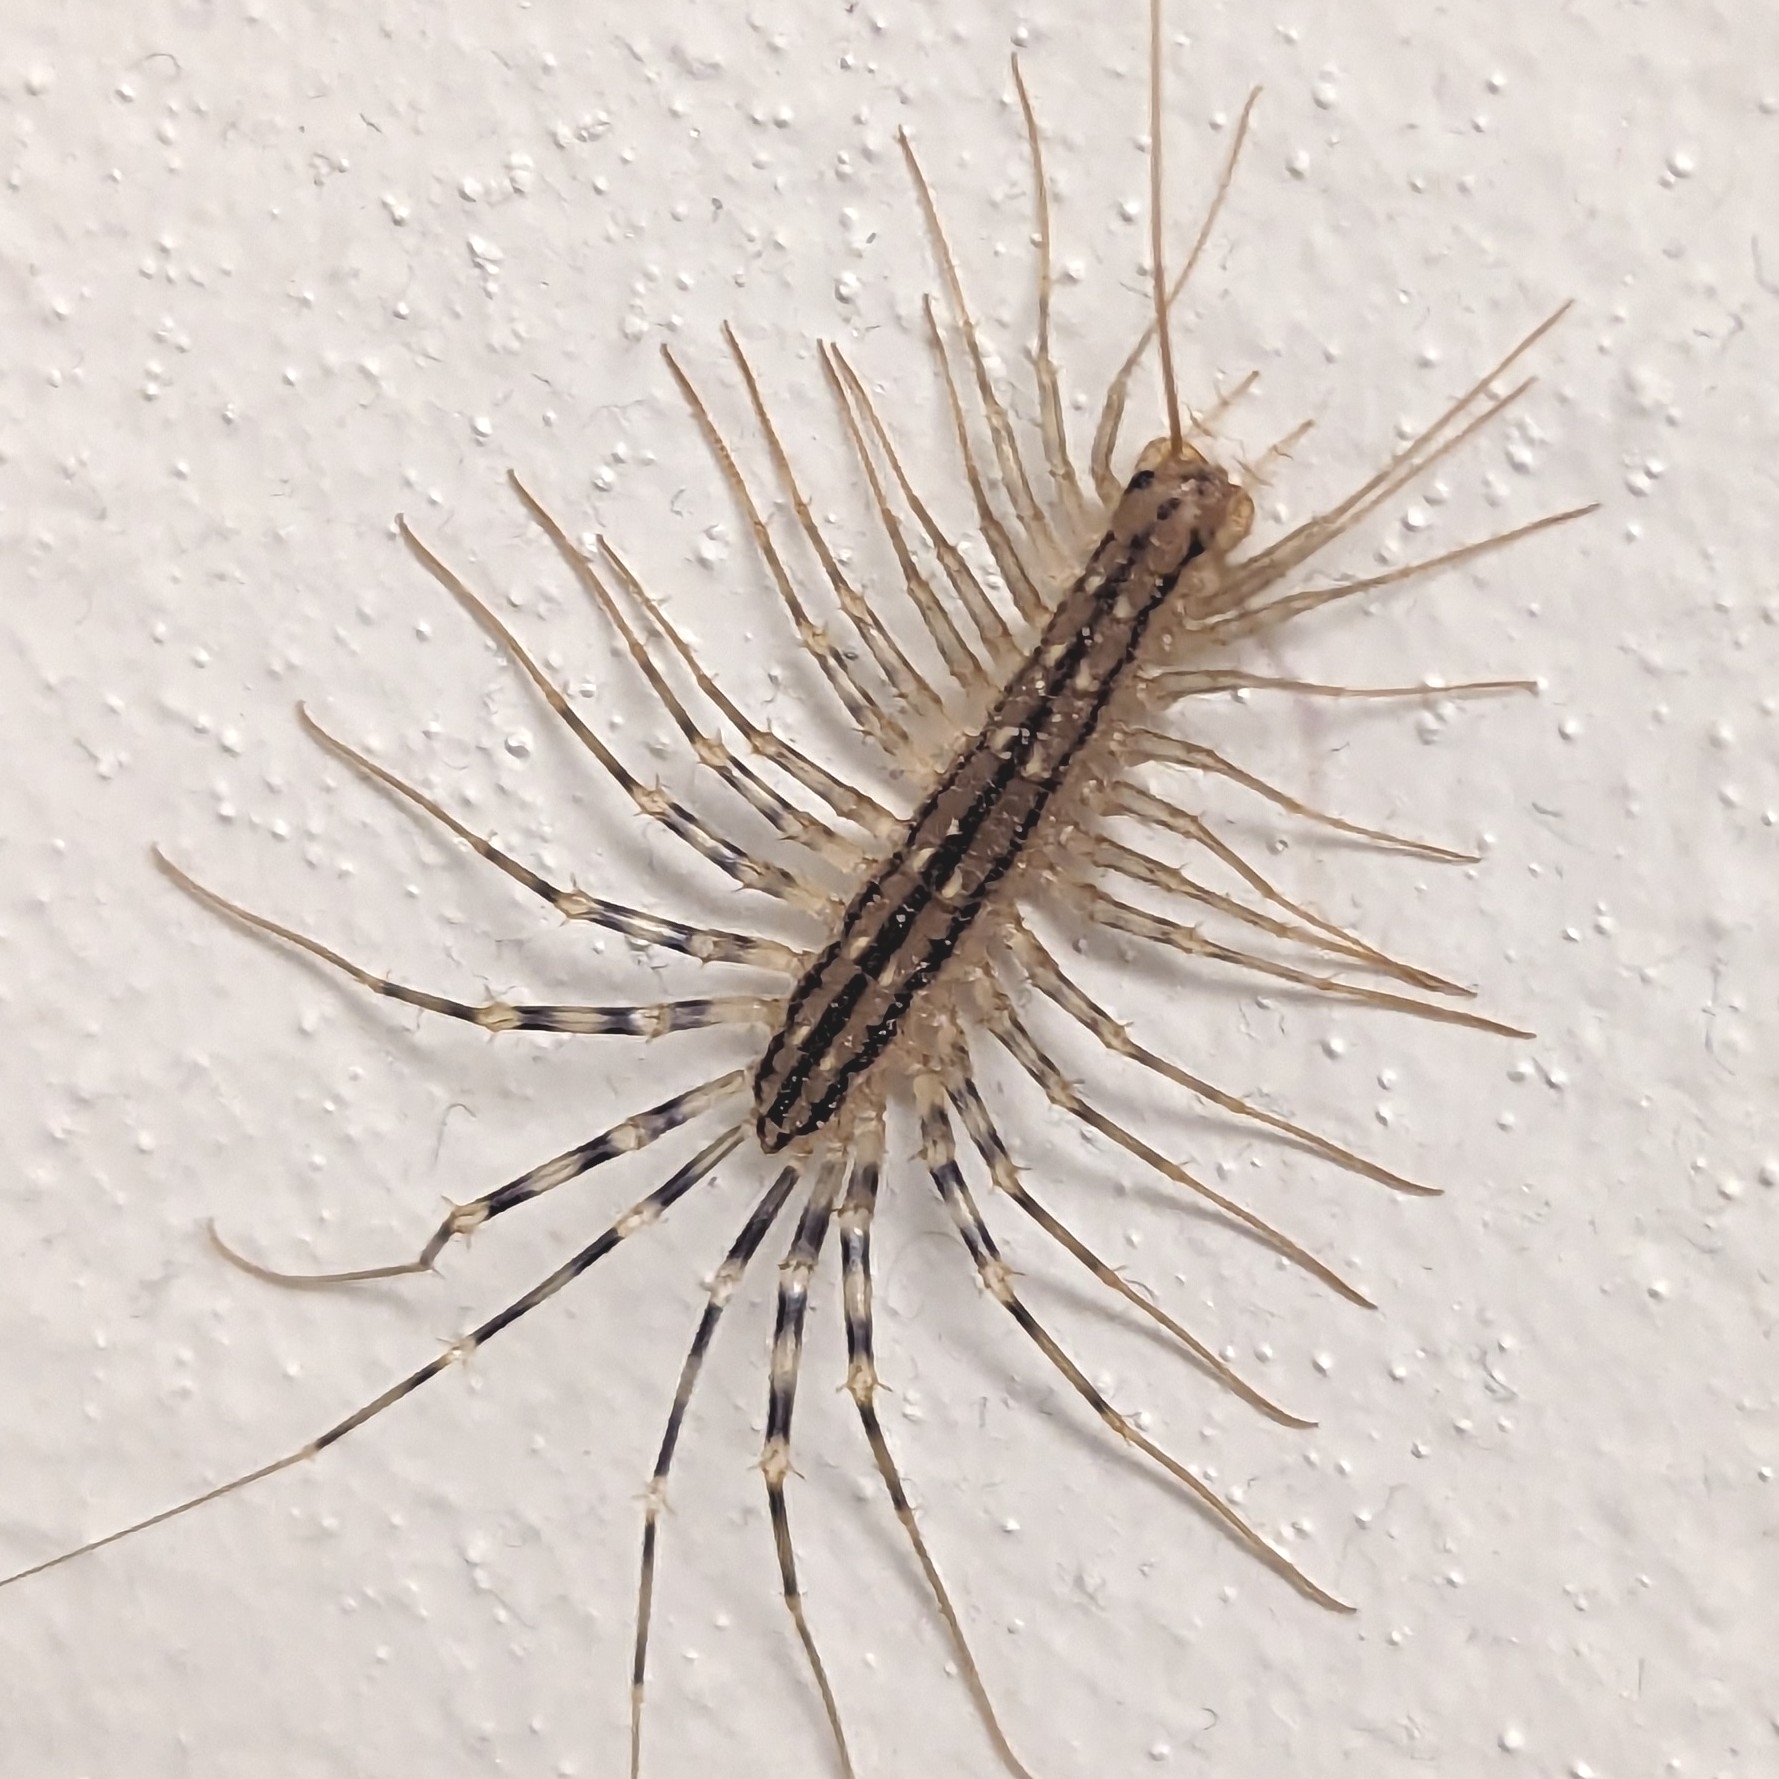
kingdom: Animalia
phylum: Arthropoda
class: Chilopoda
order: Scutigeromorpha
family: Scutigeridae
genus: Scutigera
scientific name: Scutigera coleoptrata
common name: House centipede
